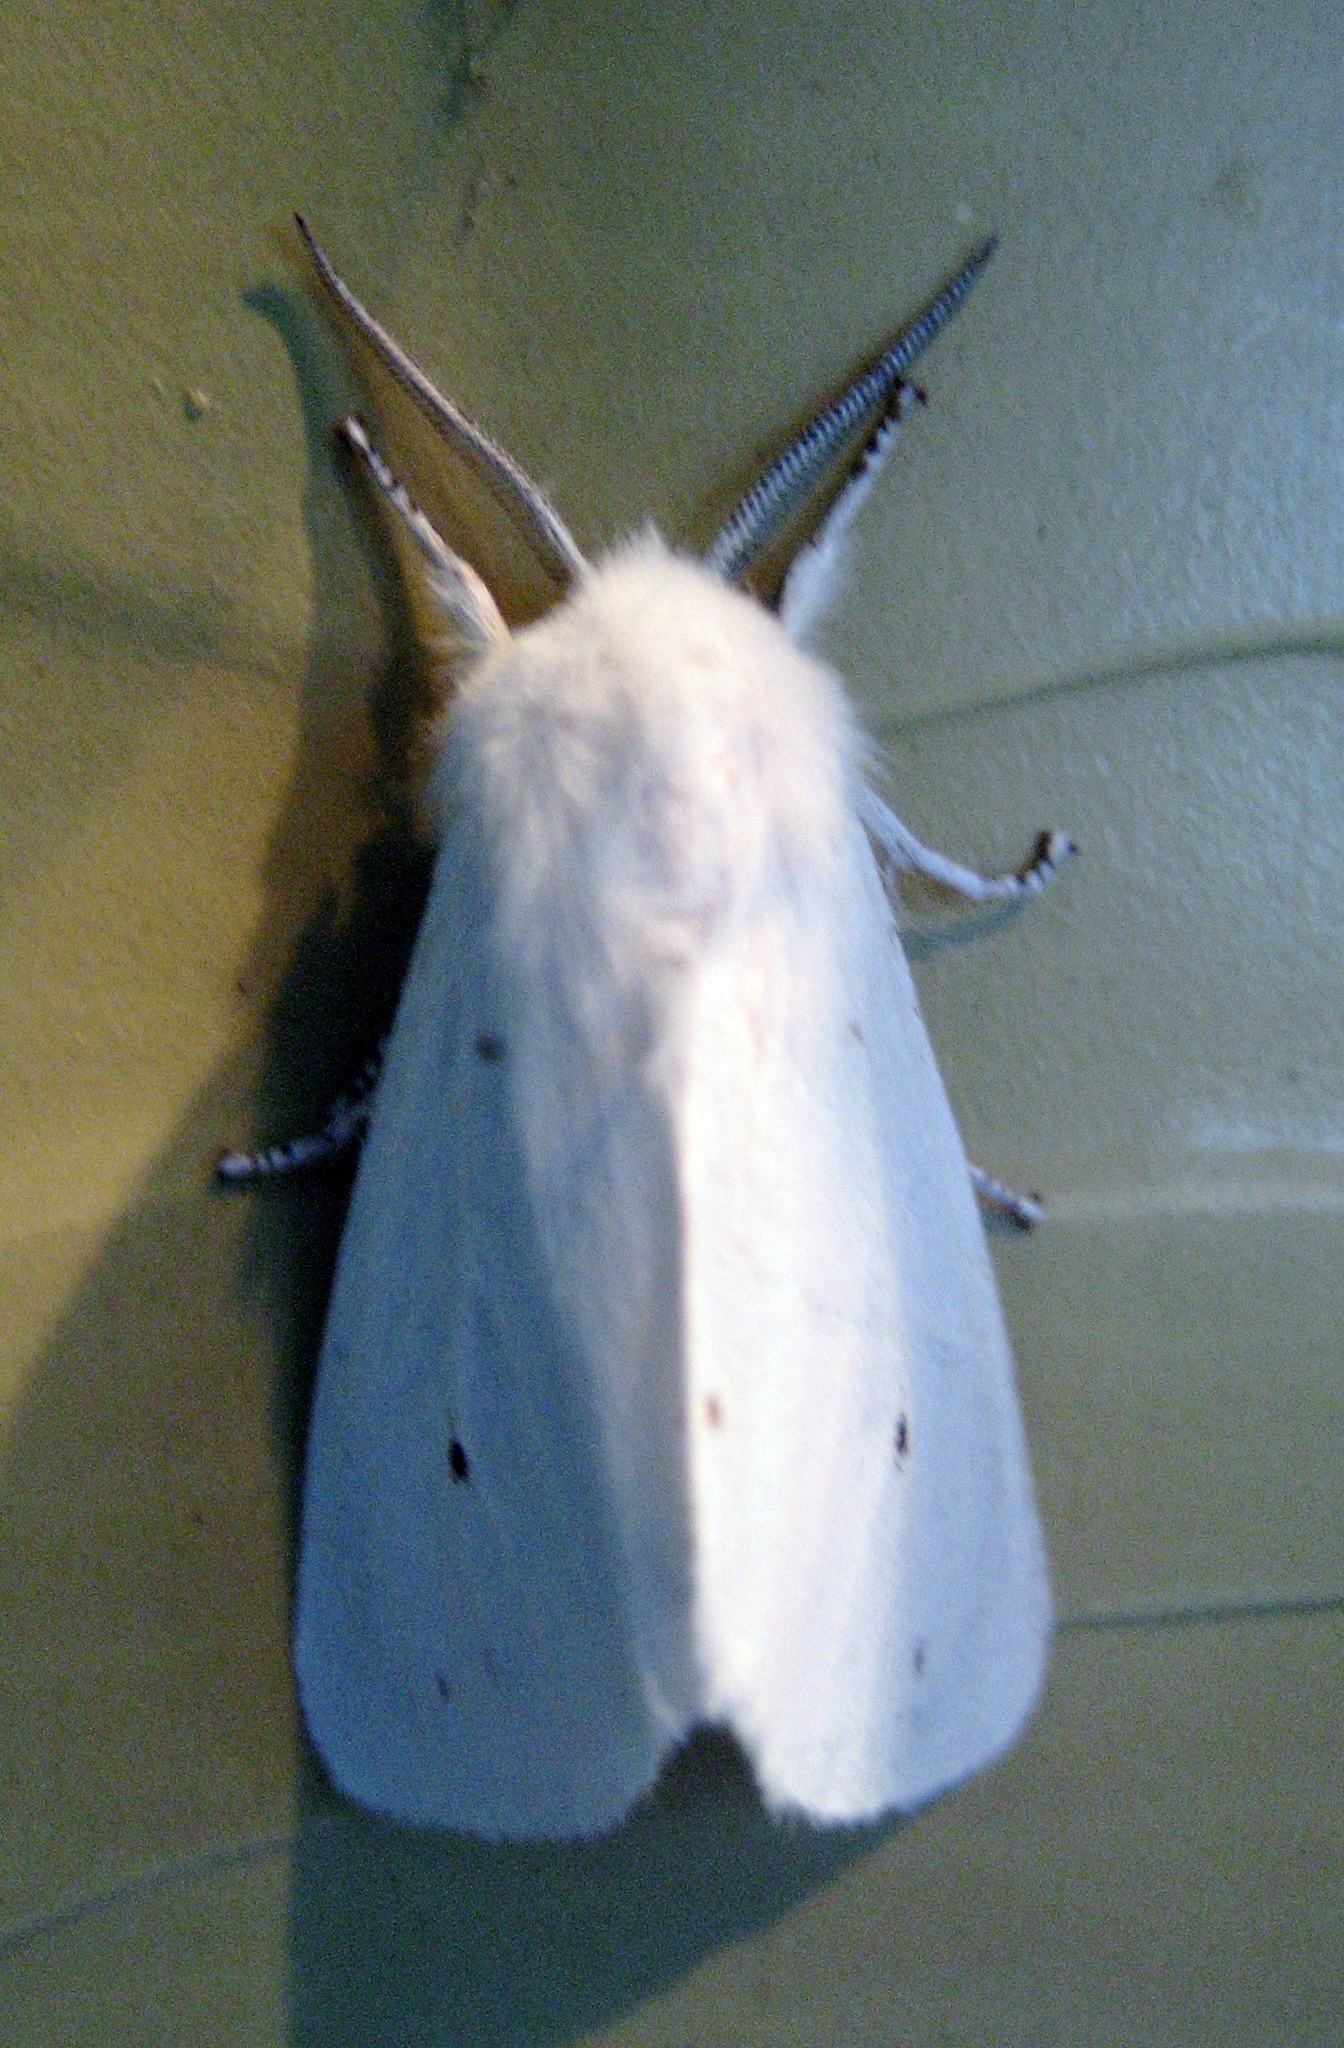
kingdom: Animalia
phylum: Arthropoda
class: Insecta
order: Lepidoptera
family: Erebidae
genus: Spilosoma
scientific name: Spilosoma virginica
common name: Virginia tiger moth
